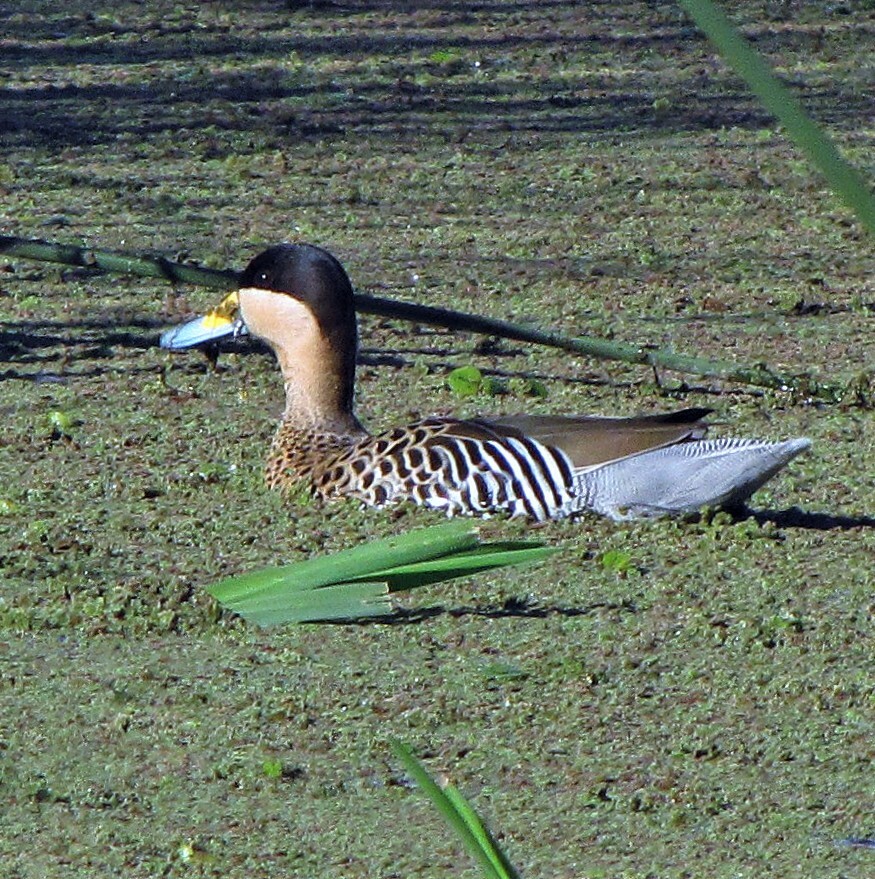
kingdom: Animalia
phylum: Chordata
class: Aves
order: Anseriformes
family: Anatidae
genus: Spatula
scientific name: Spatula versicolor
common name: Silver teal
